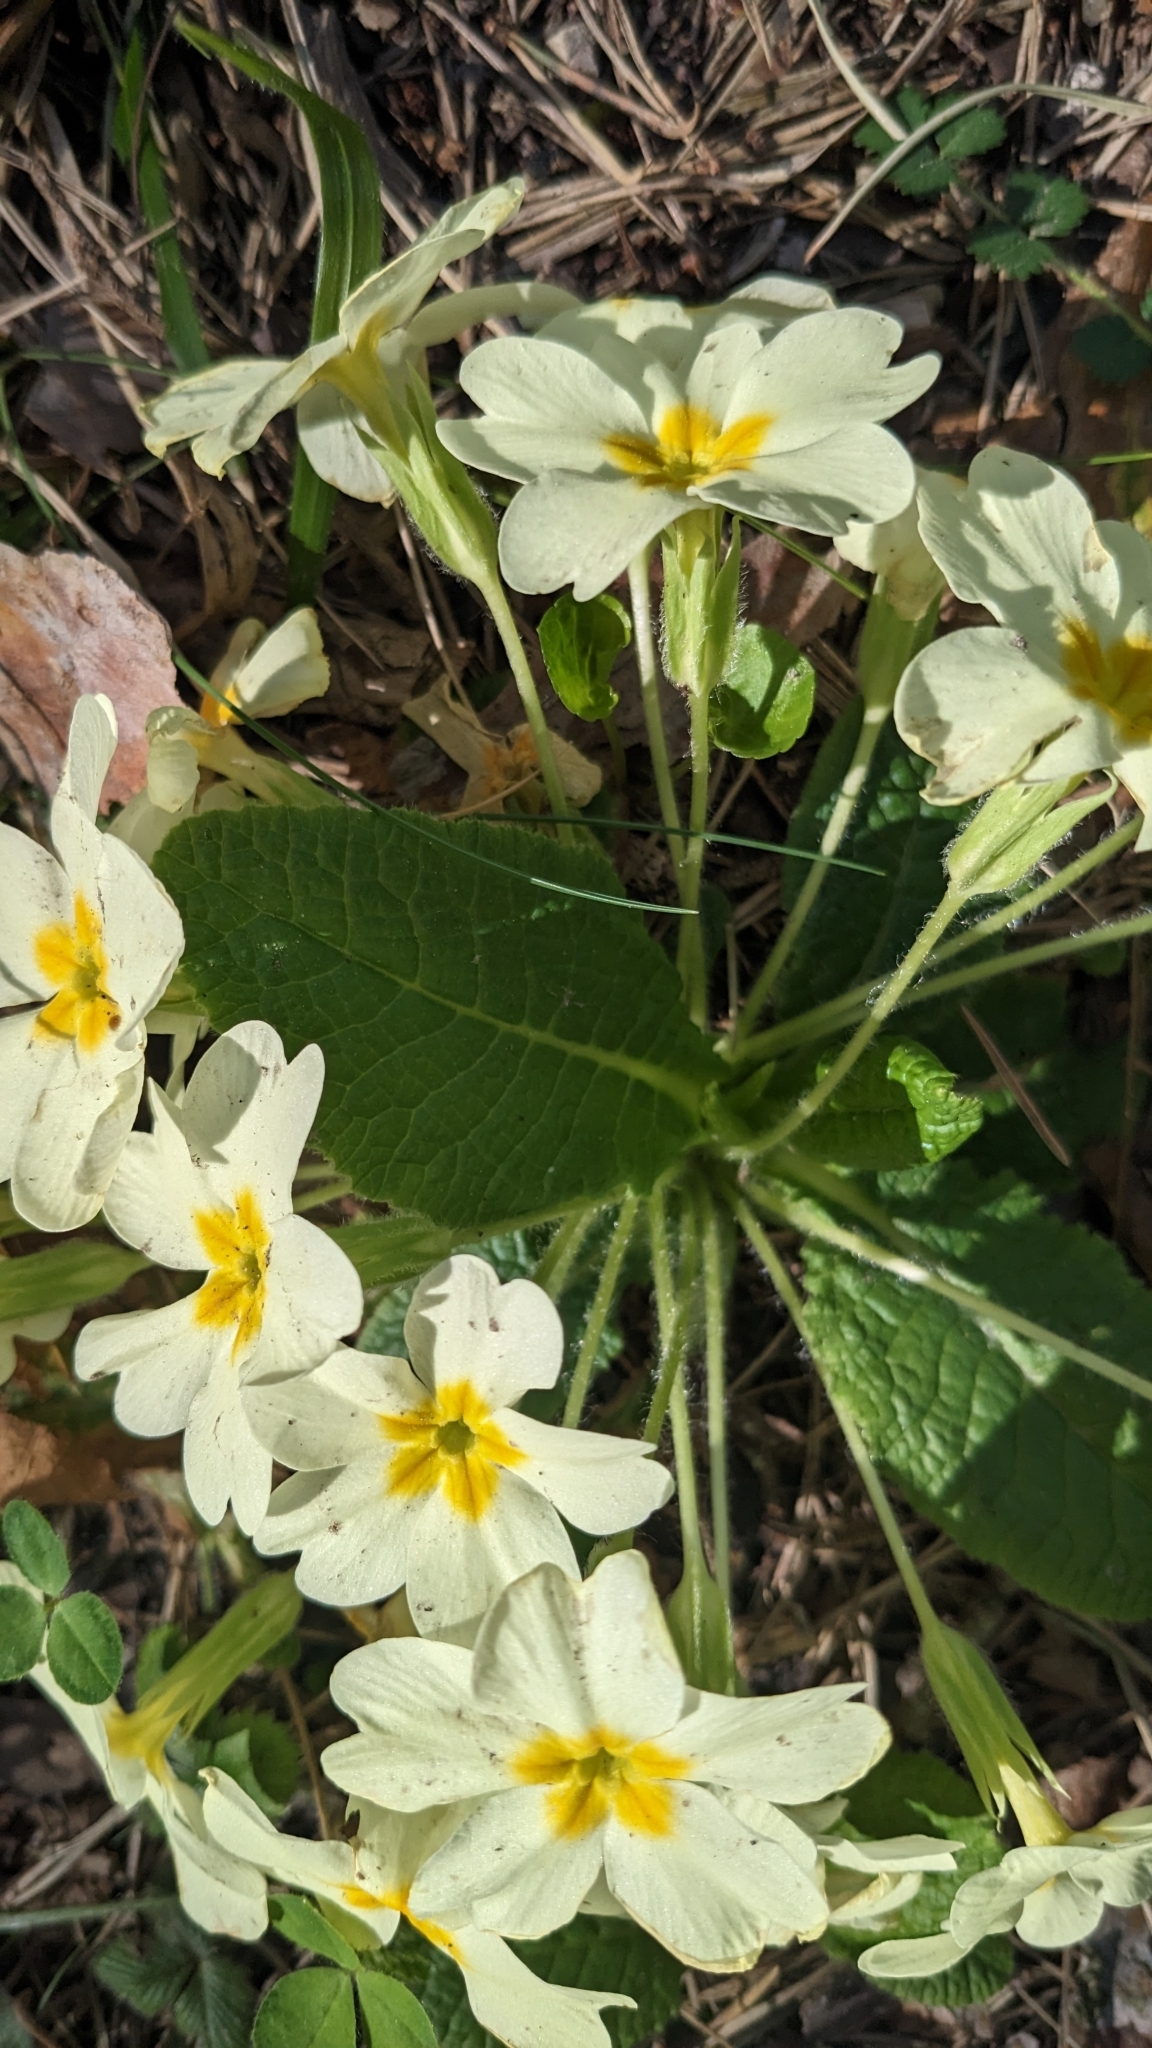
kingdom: Plantae
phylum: Tracheophyta
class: Magnoliopsida
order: Ericales
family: Primulaceae
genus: Primula
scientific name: Primula vulgaris
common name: Primrose
